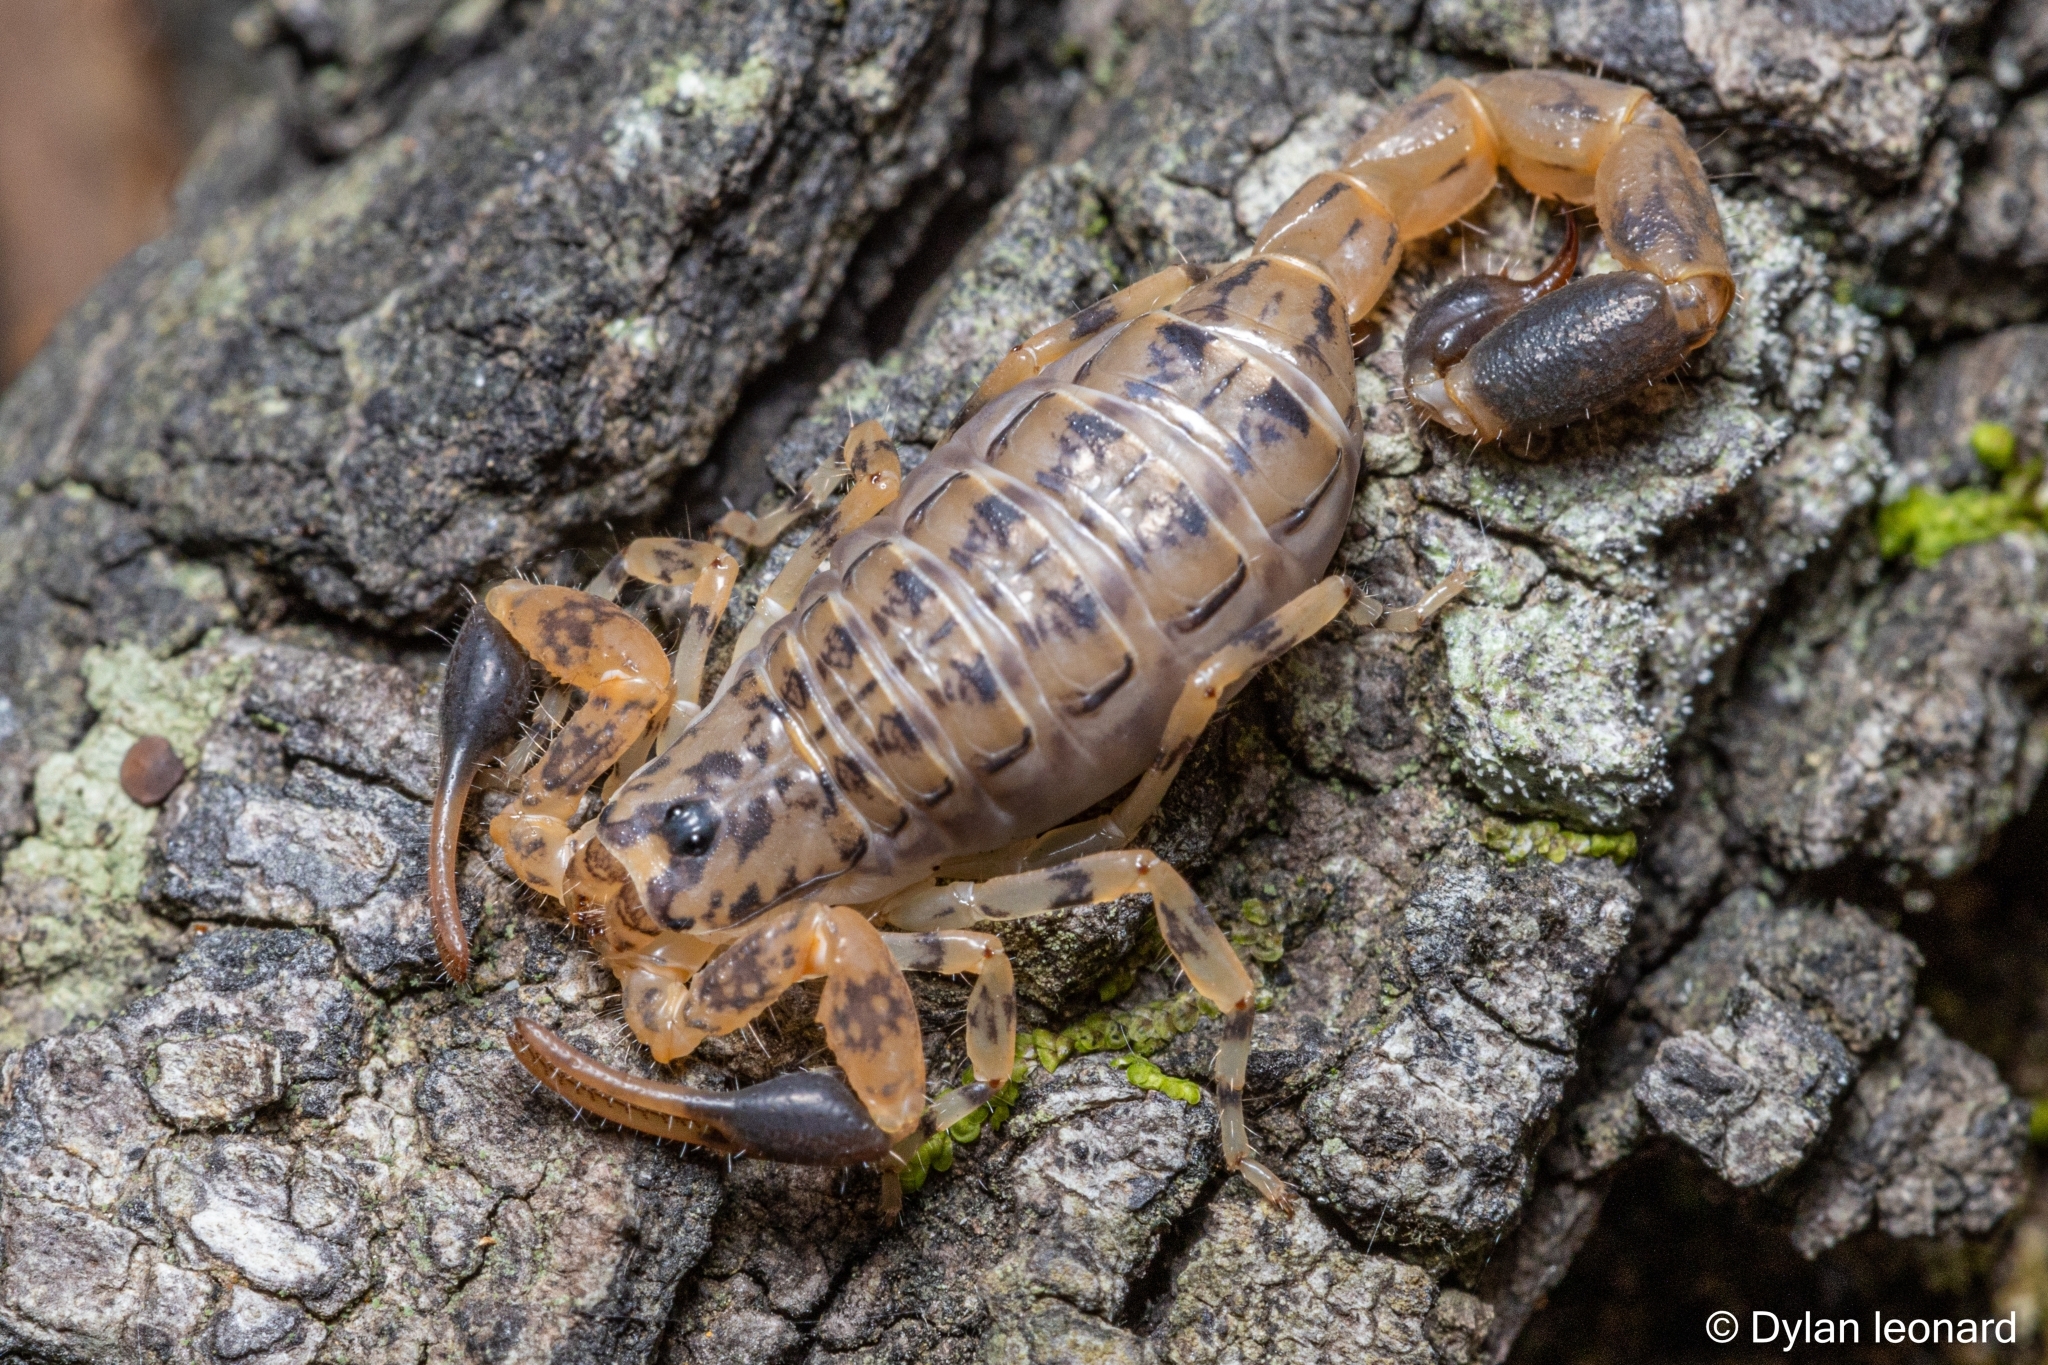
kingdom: Animalia
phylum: Arthropoda
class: Arachnida
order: Scorpiones
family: Buthidae
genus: Uroplectes
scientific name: Uroplectes formosus
